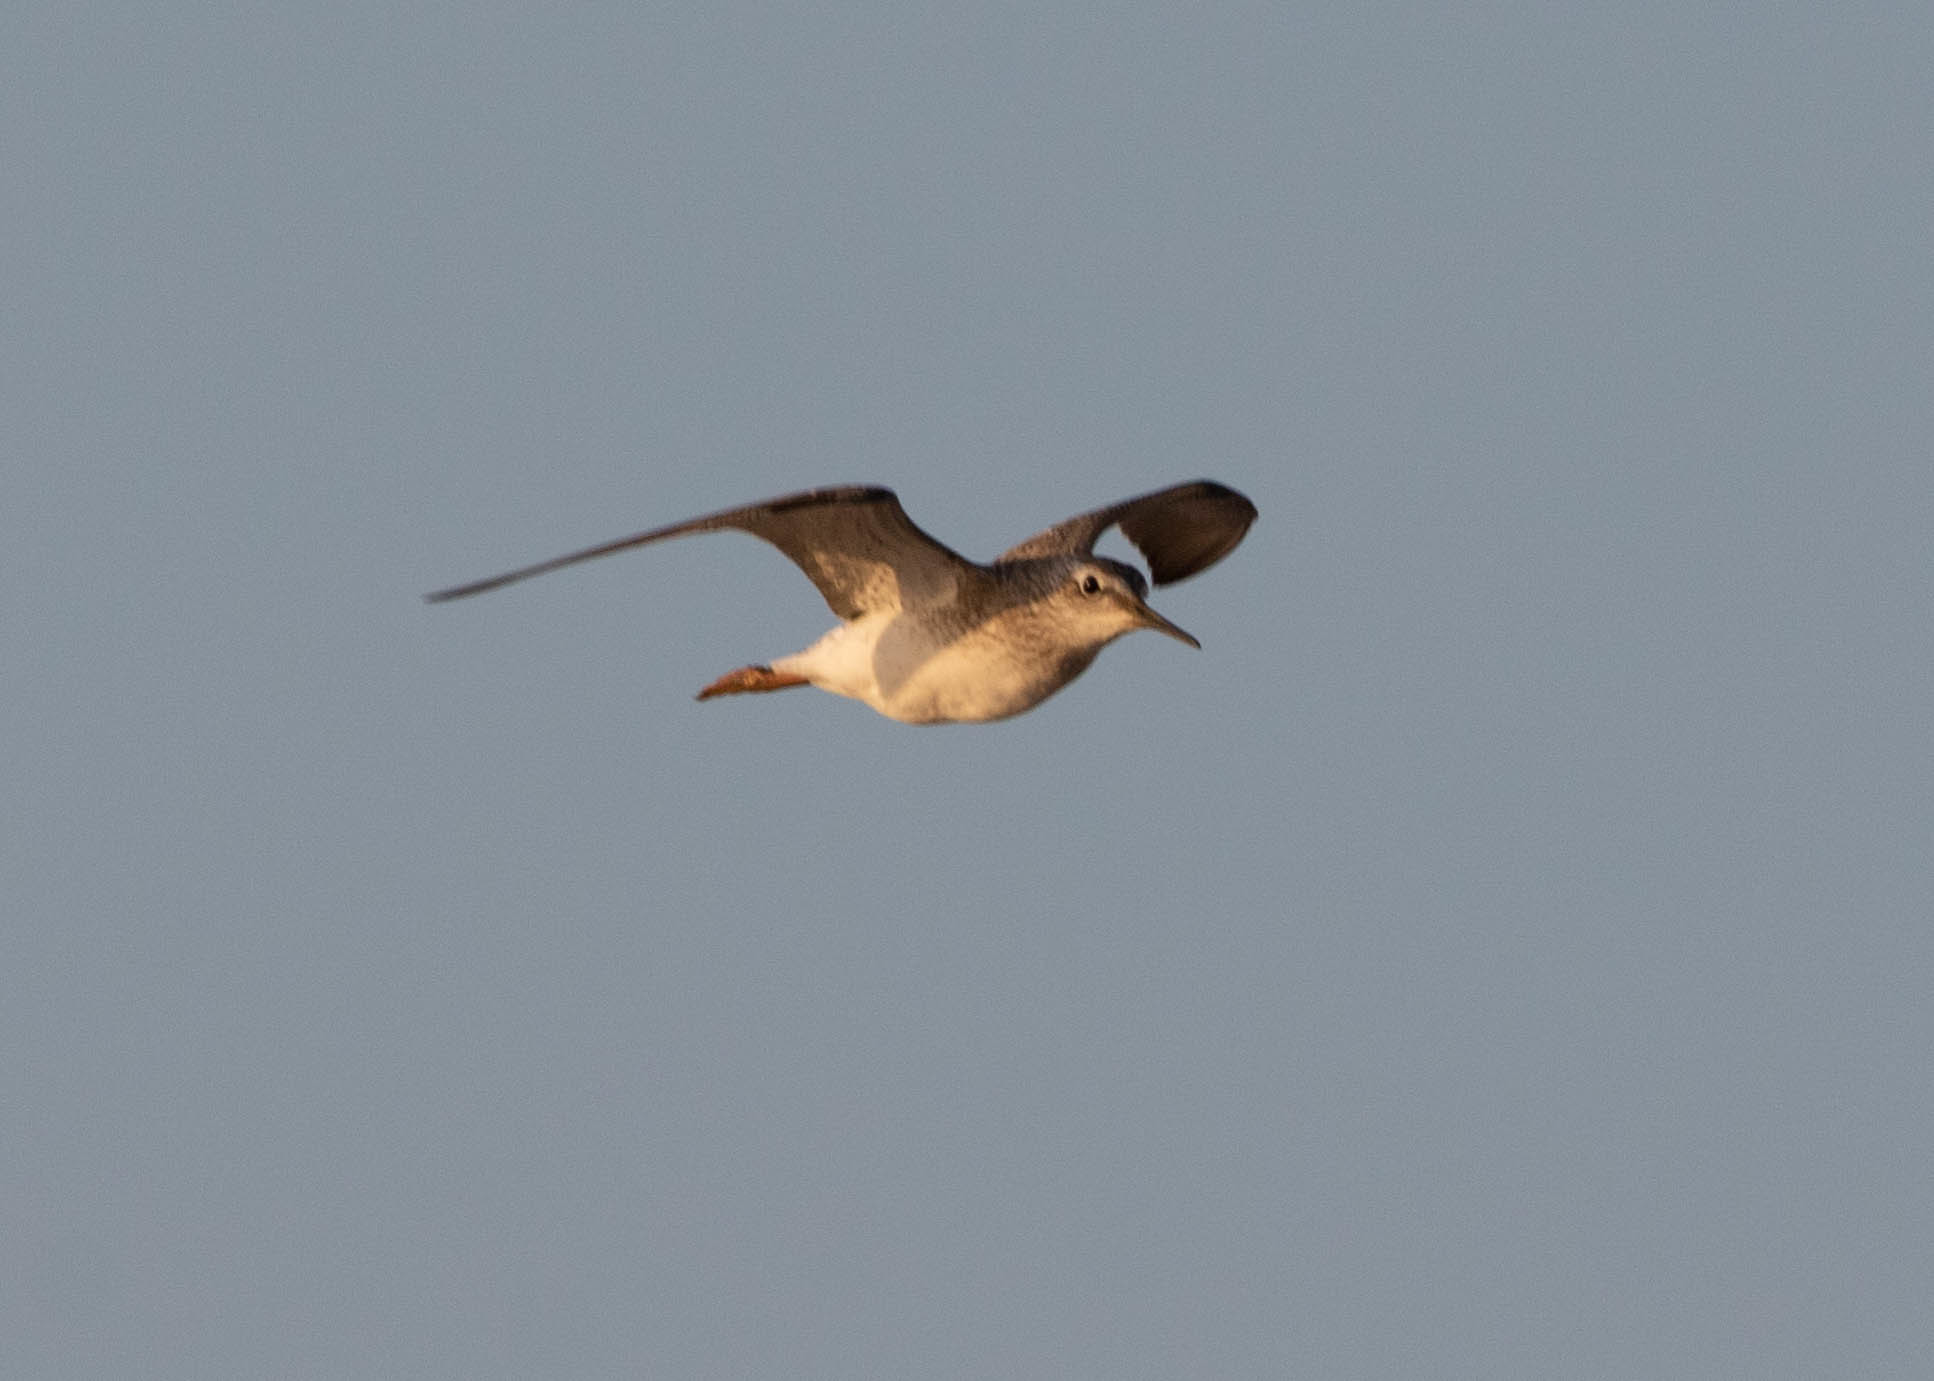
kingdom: Animalia
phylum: Chordata
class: Aves
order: Charadriiformes
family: Scolopacidae
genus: Tringa
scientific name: Tringa flavipes
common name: Lesser yellowlegs
